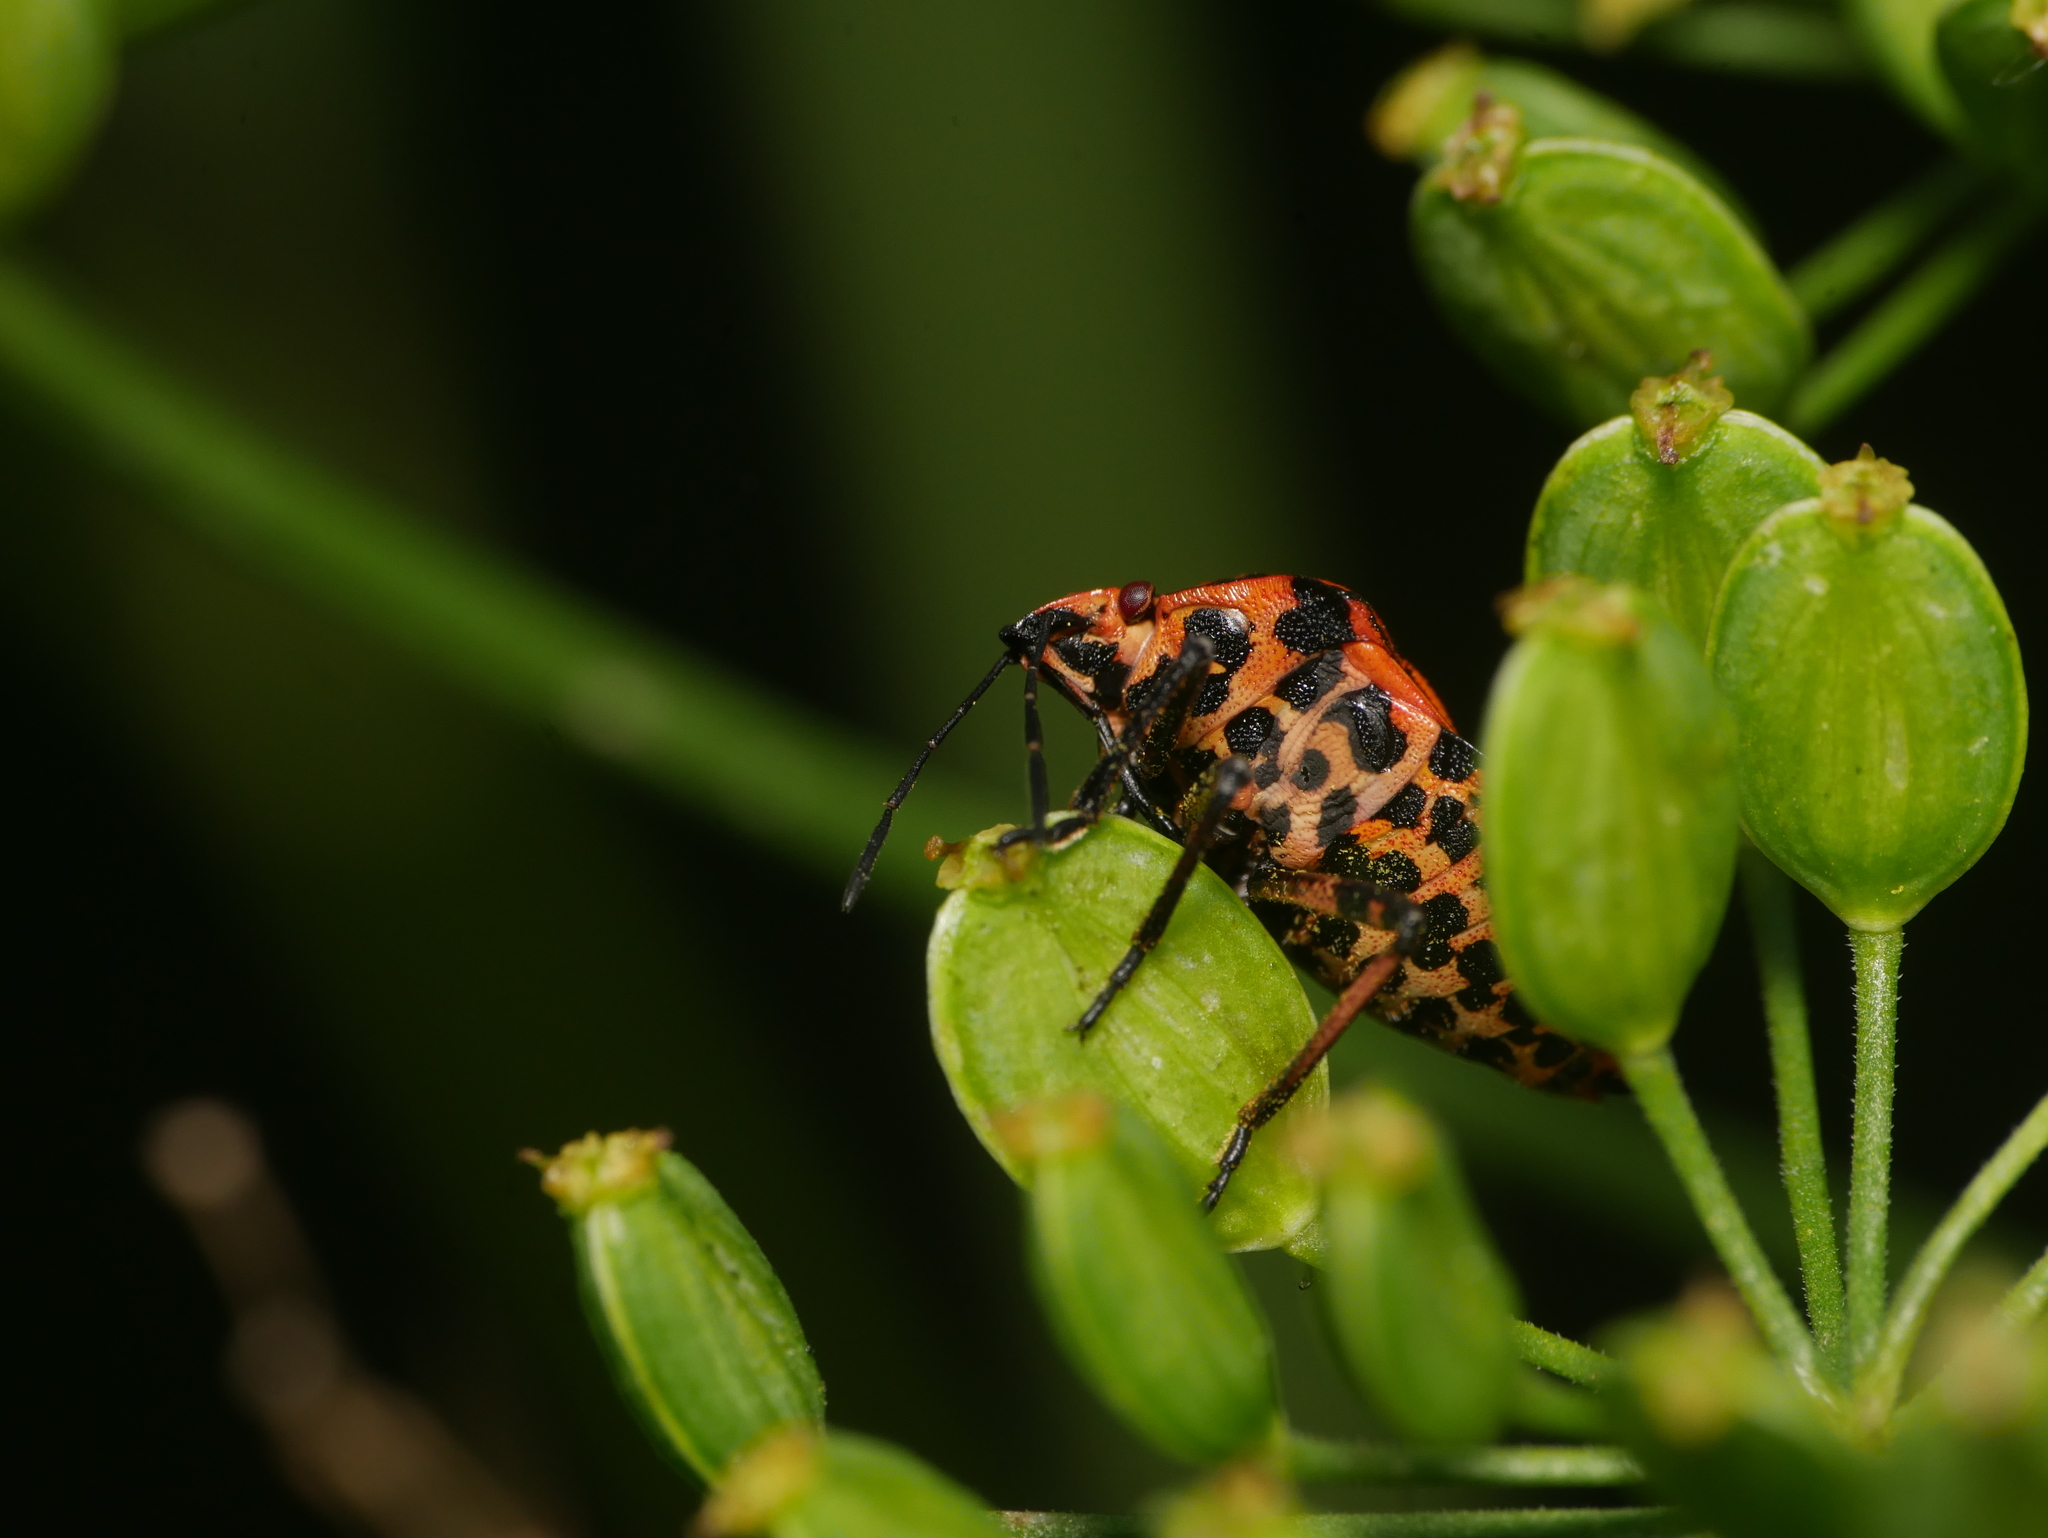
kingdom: Animalia
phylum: Arthropoda
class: Insecta
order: Hemiptera
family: Pentatomidae
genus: Graphosoma
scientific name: Graphosoma italicum
